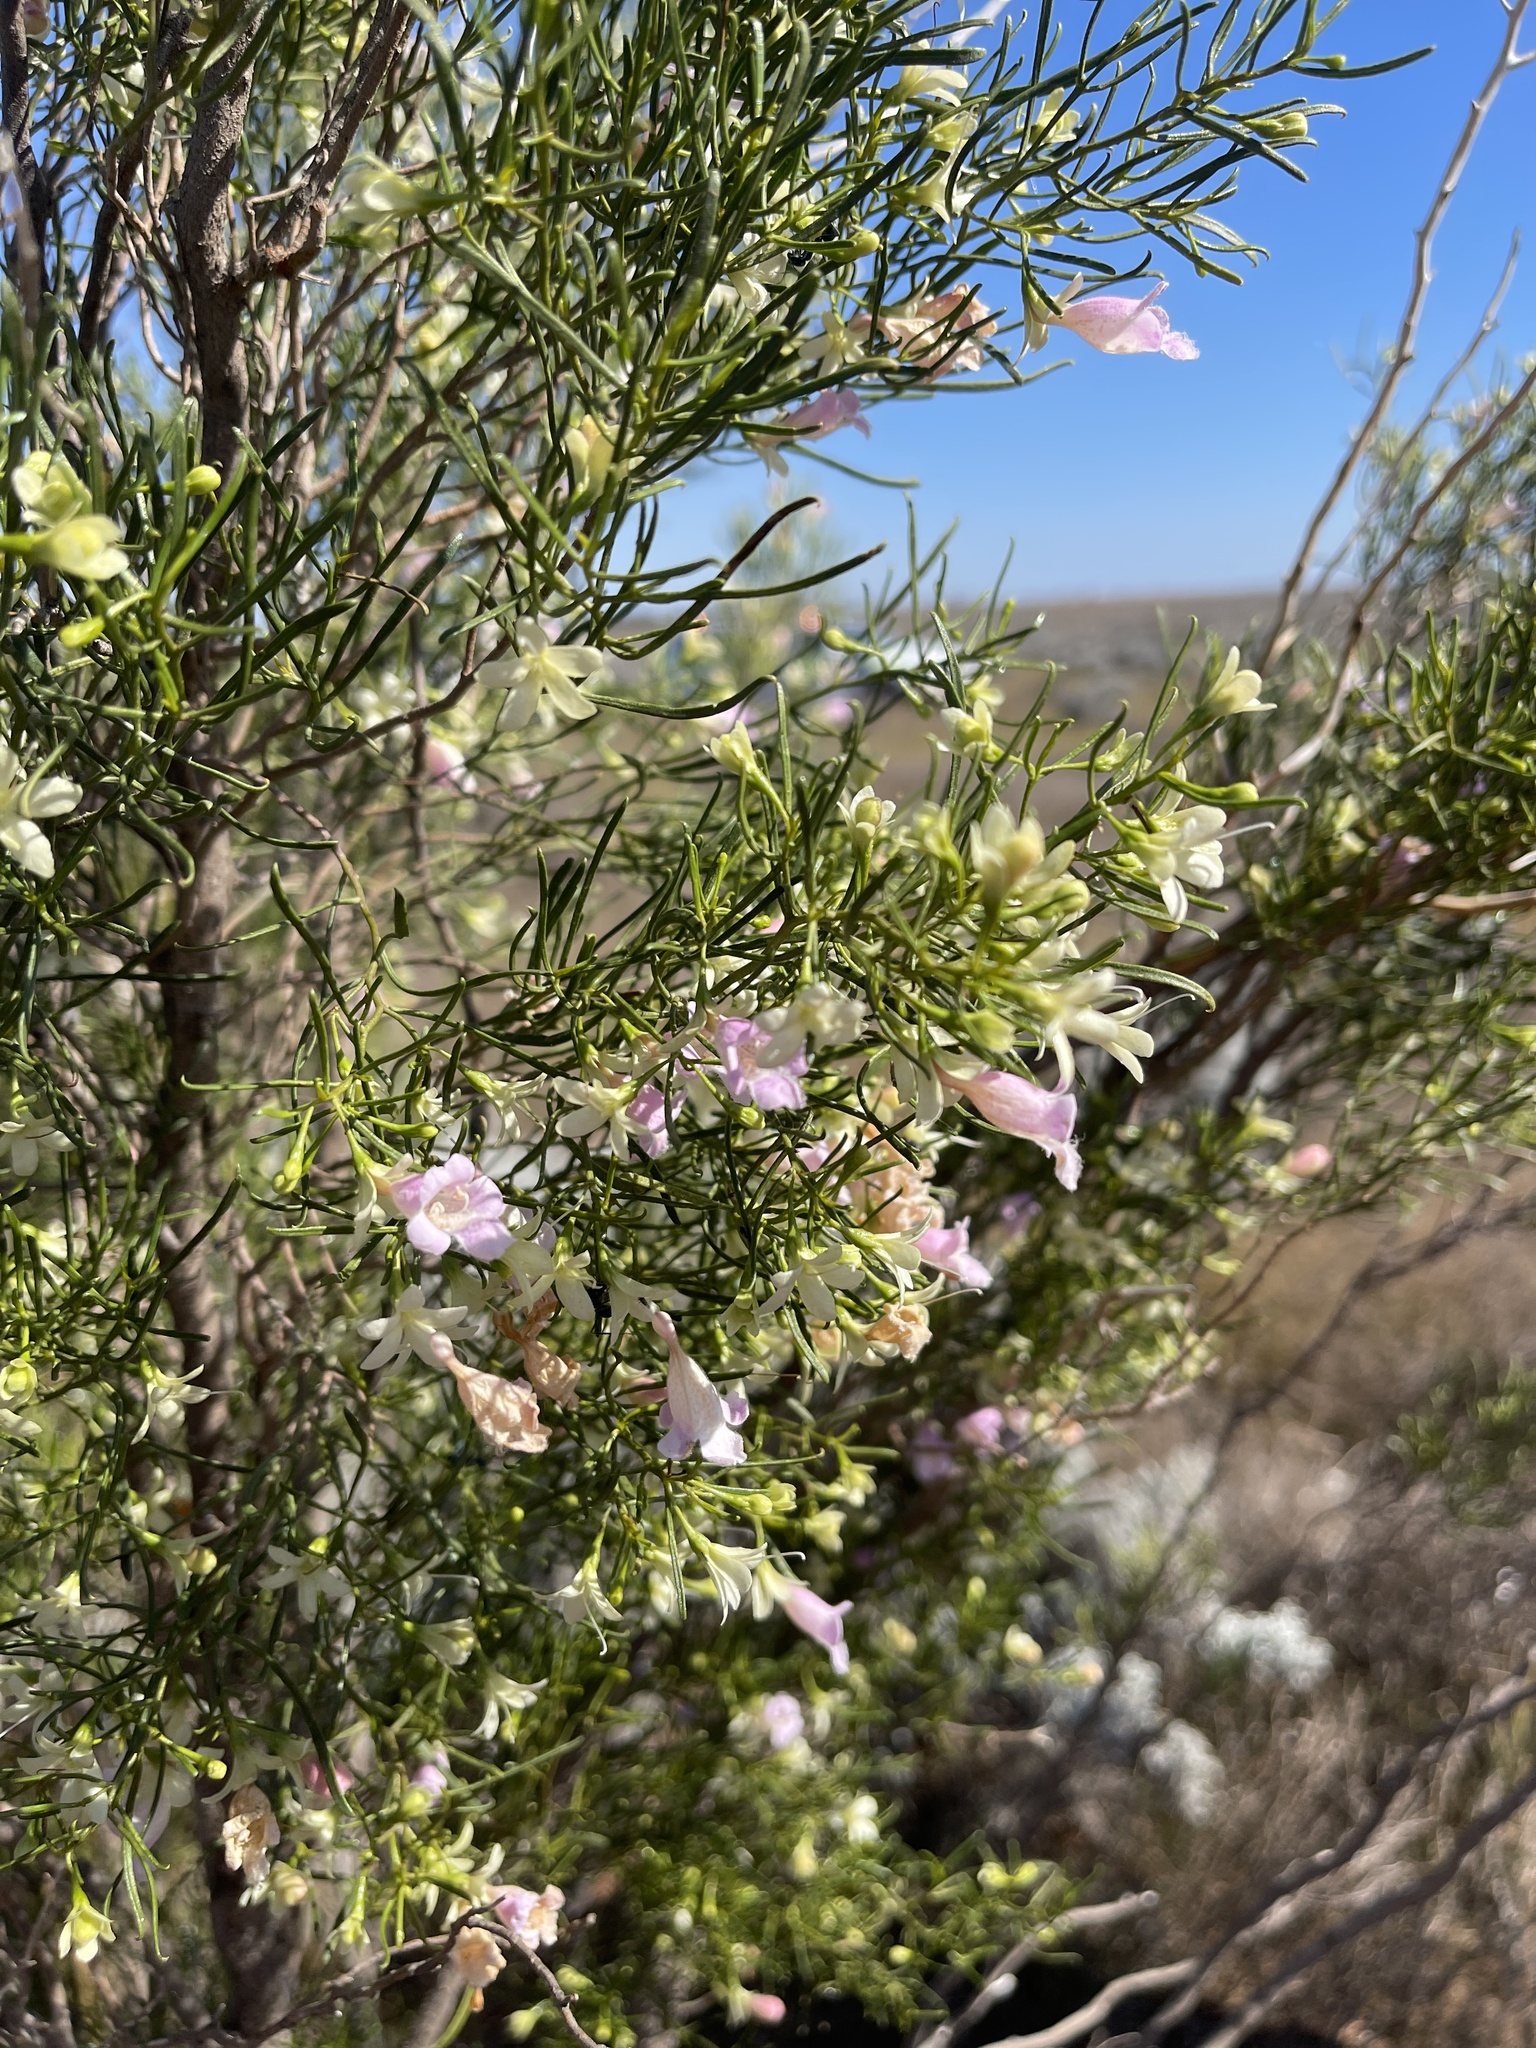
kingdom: Plantae
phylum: Tracheophyta
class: Magnoliopsida
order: Lamiales
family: Scrophulariaceae
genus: Eremophila
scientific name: Eremophila sturtii
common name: Narrow-leaf emubush
